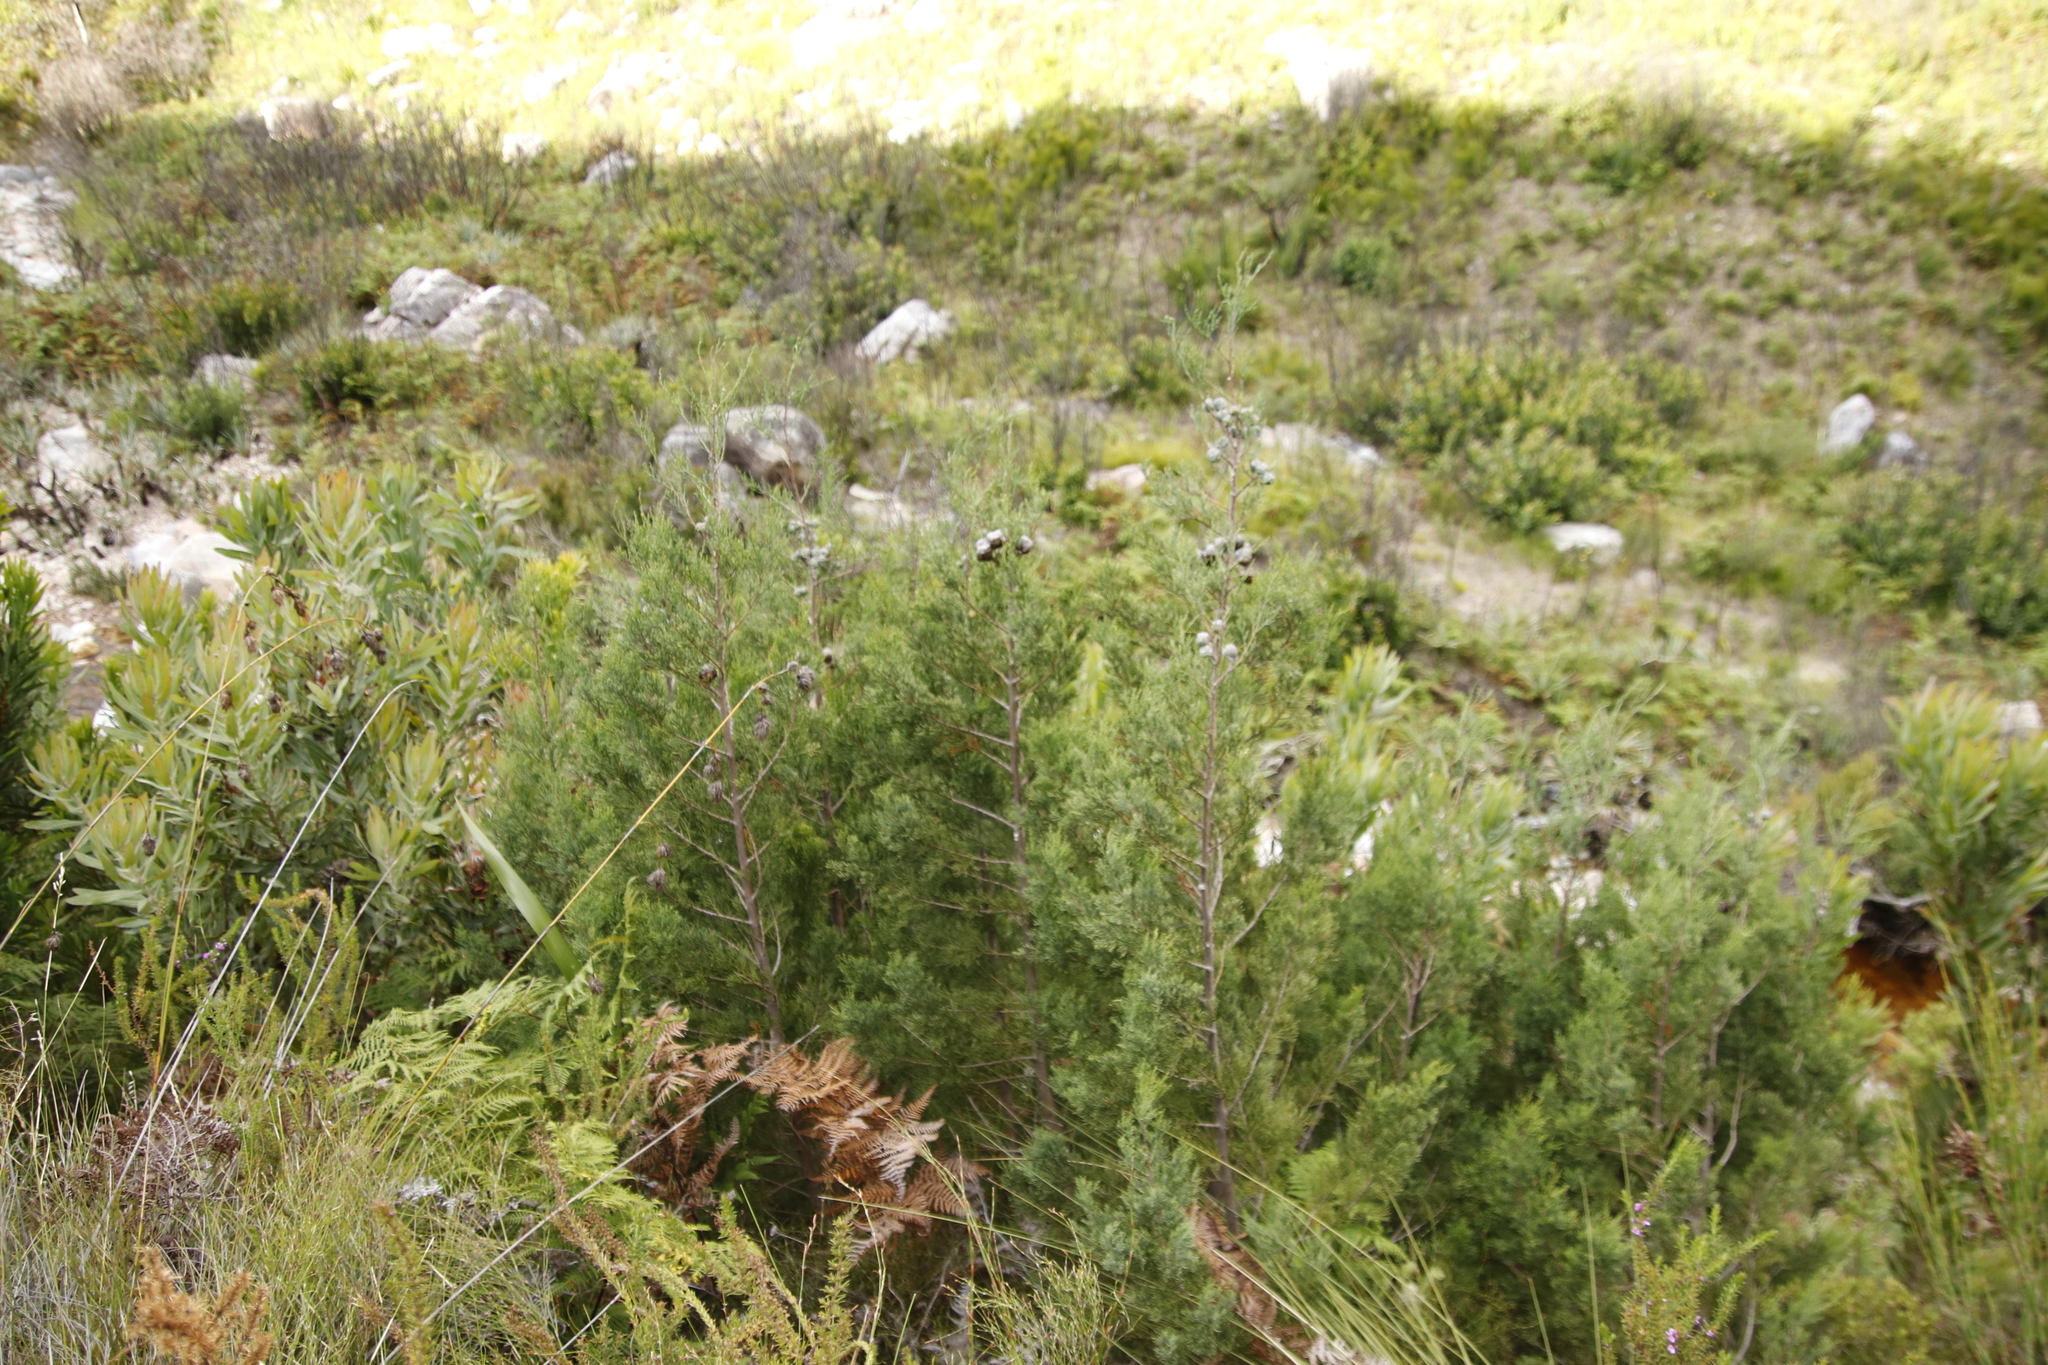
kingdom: Plantae
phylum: Tracheophyta
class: Pinopsida
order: Pinales
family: Cupressaceae
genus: Widdringtonia
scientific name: Widdringtonia nodiflora
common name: Cape cypress
